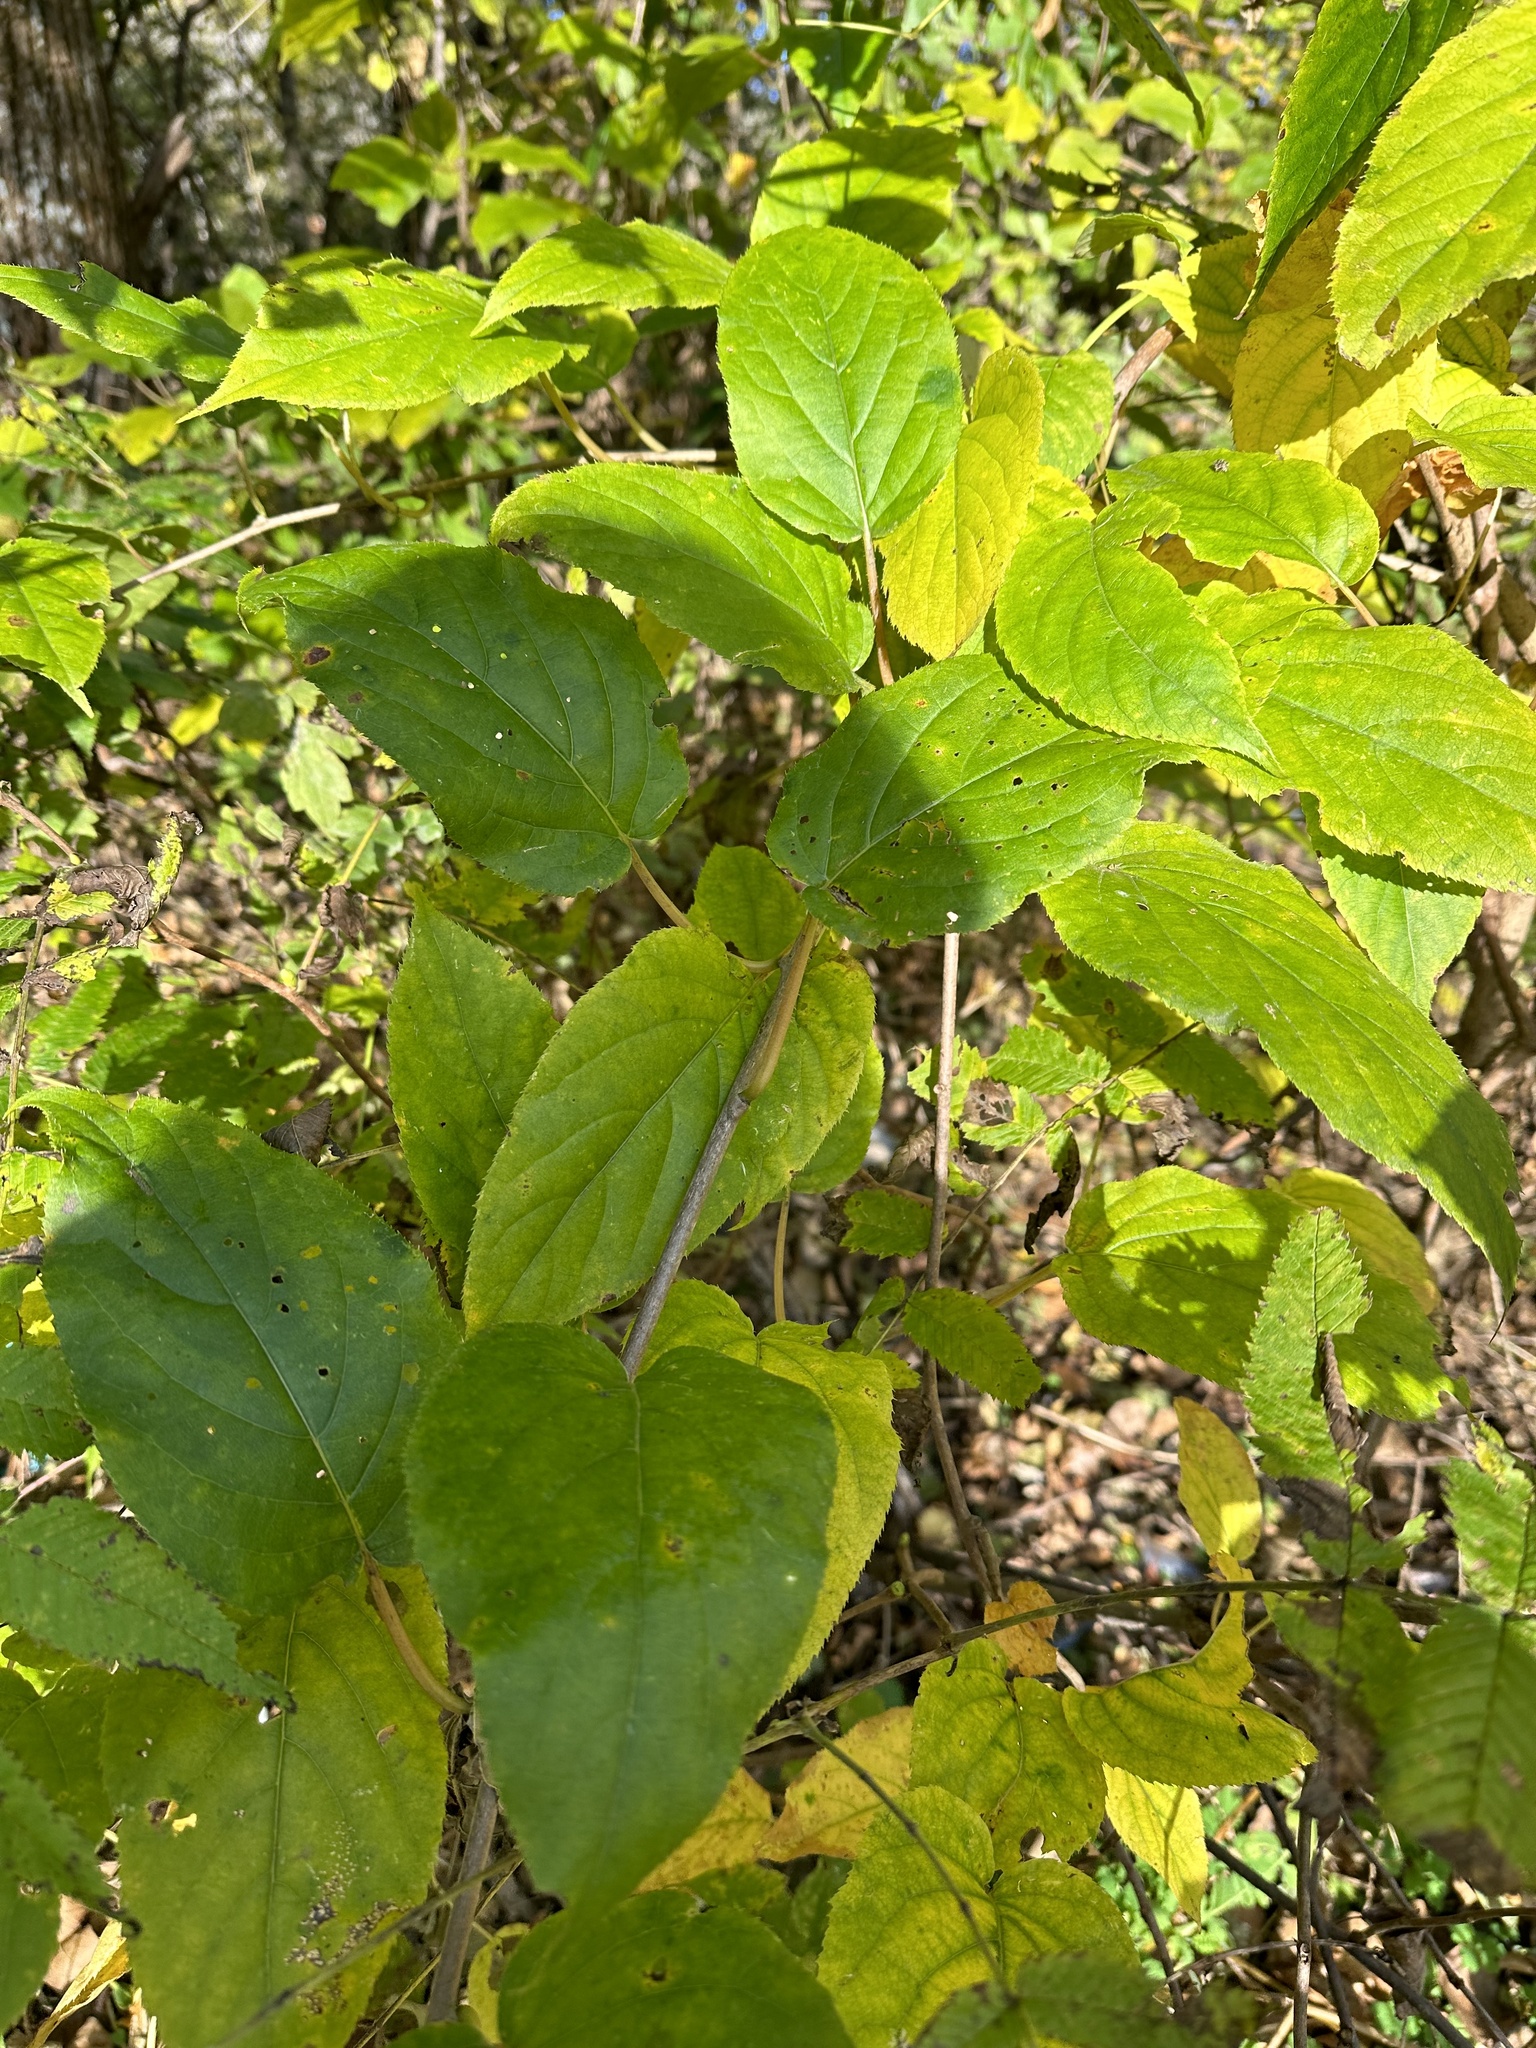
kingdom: Plantae
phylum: Tracheophyta
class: Magnoliopsida
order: Ericales
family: Actinidiaceae
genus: Actinidia
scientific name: Actinidia arguta
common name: Tara vine
